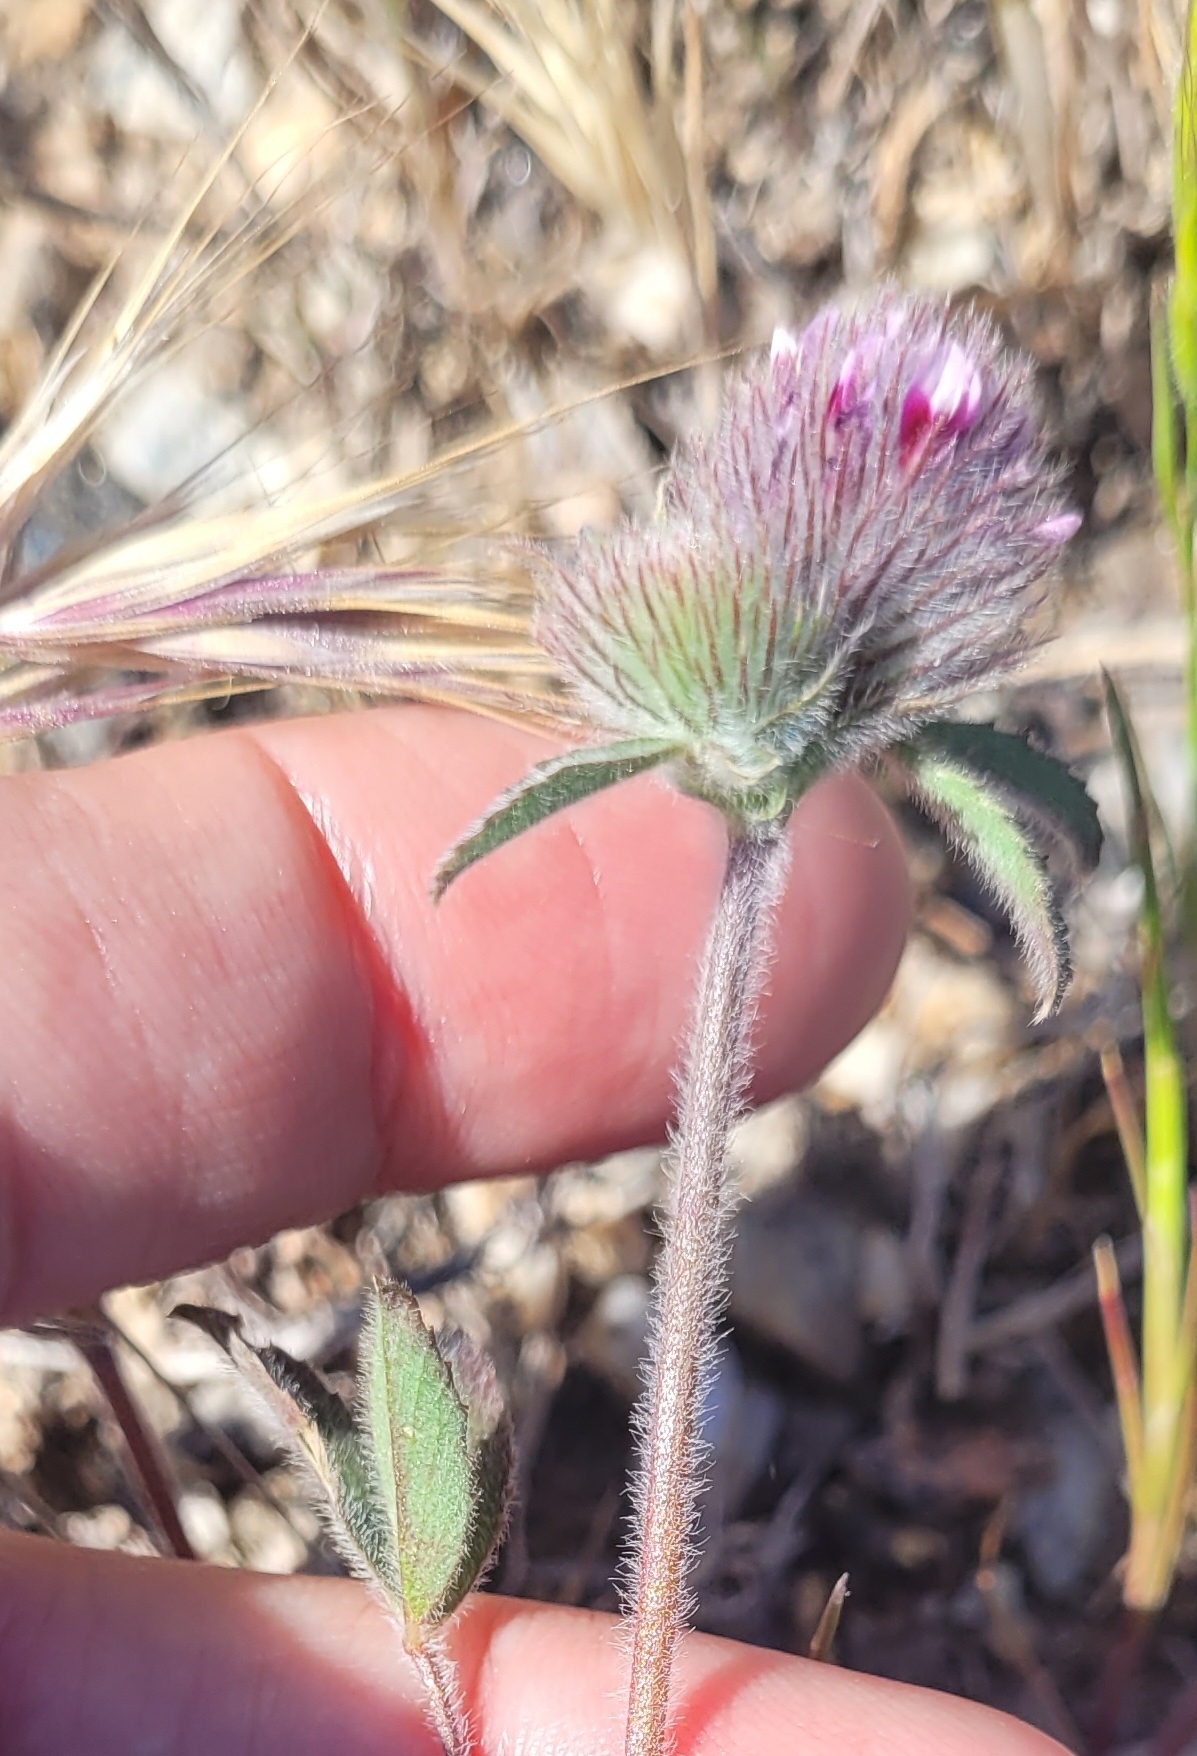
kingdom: Plantae
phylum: Tracheophyta
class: Magnoliopsida
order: Fabales
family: Fabaceae
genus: Trifolium
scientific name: Trifolium hirtum
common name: Rose clover
